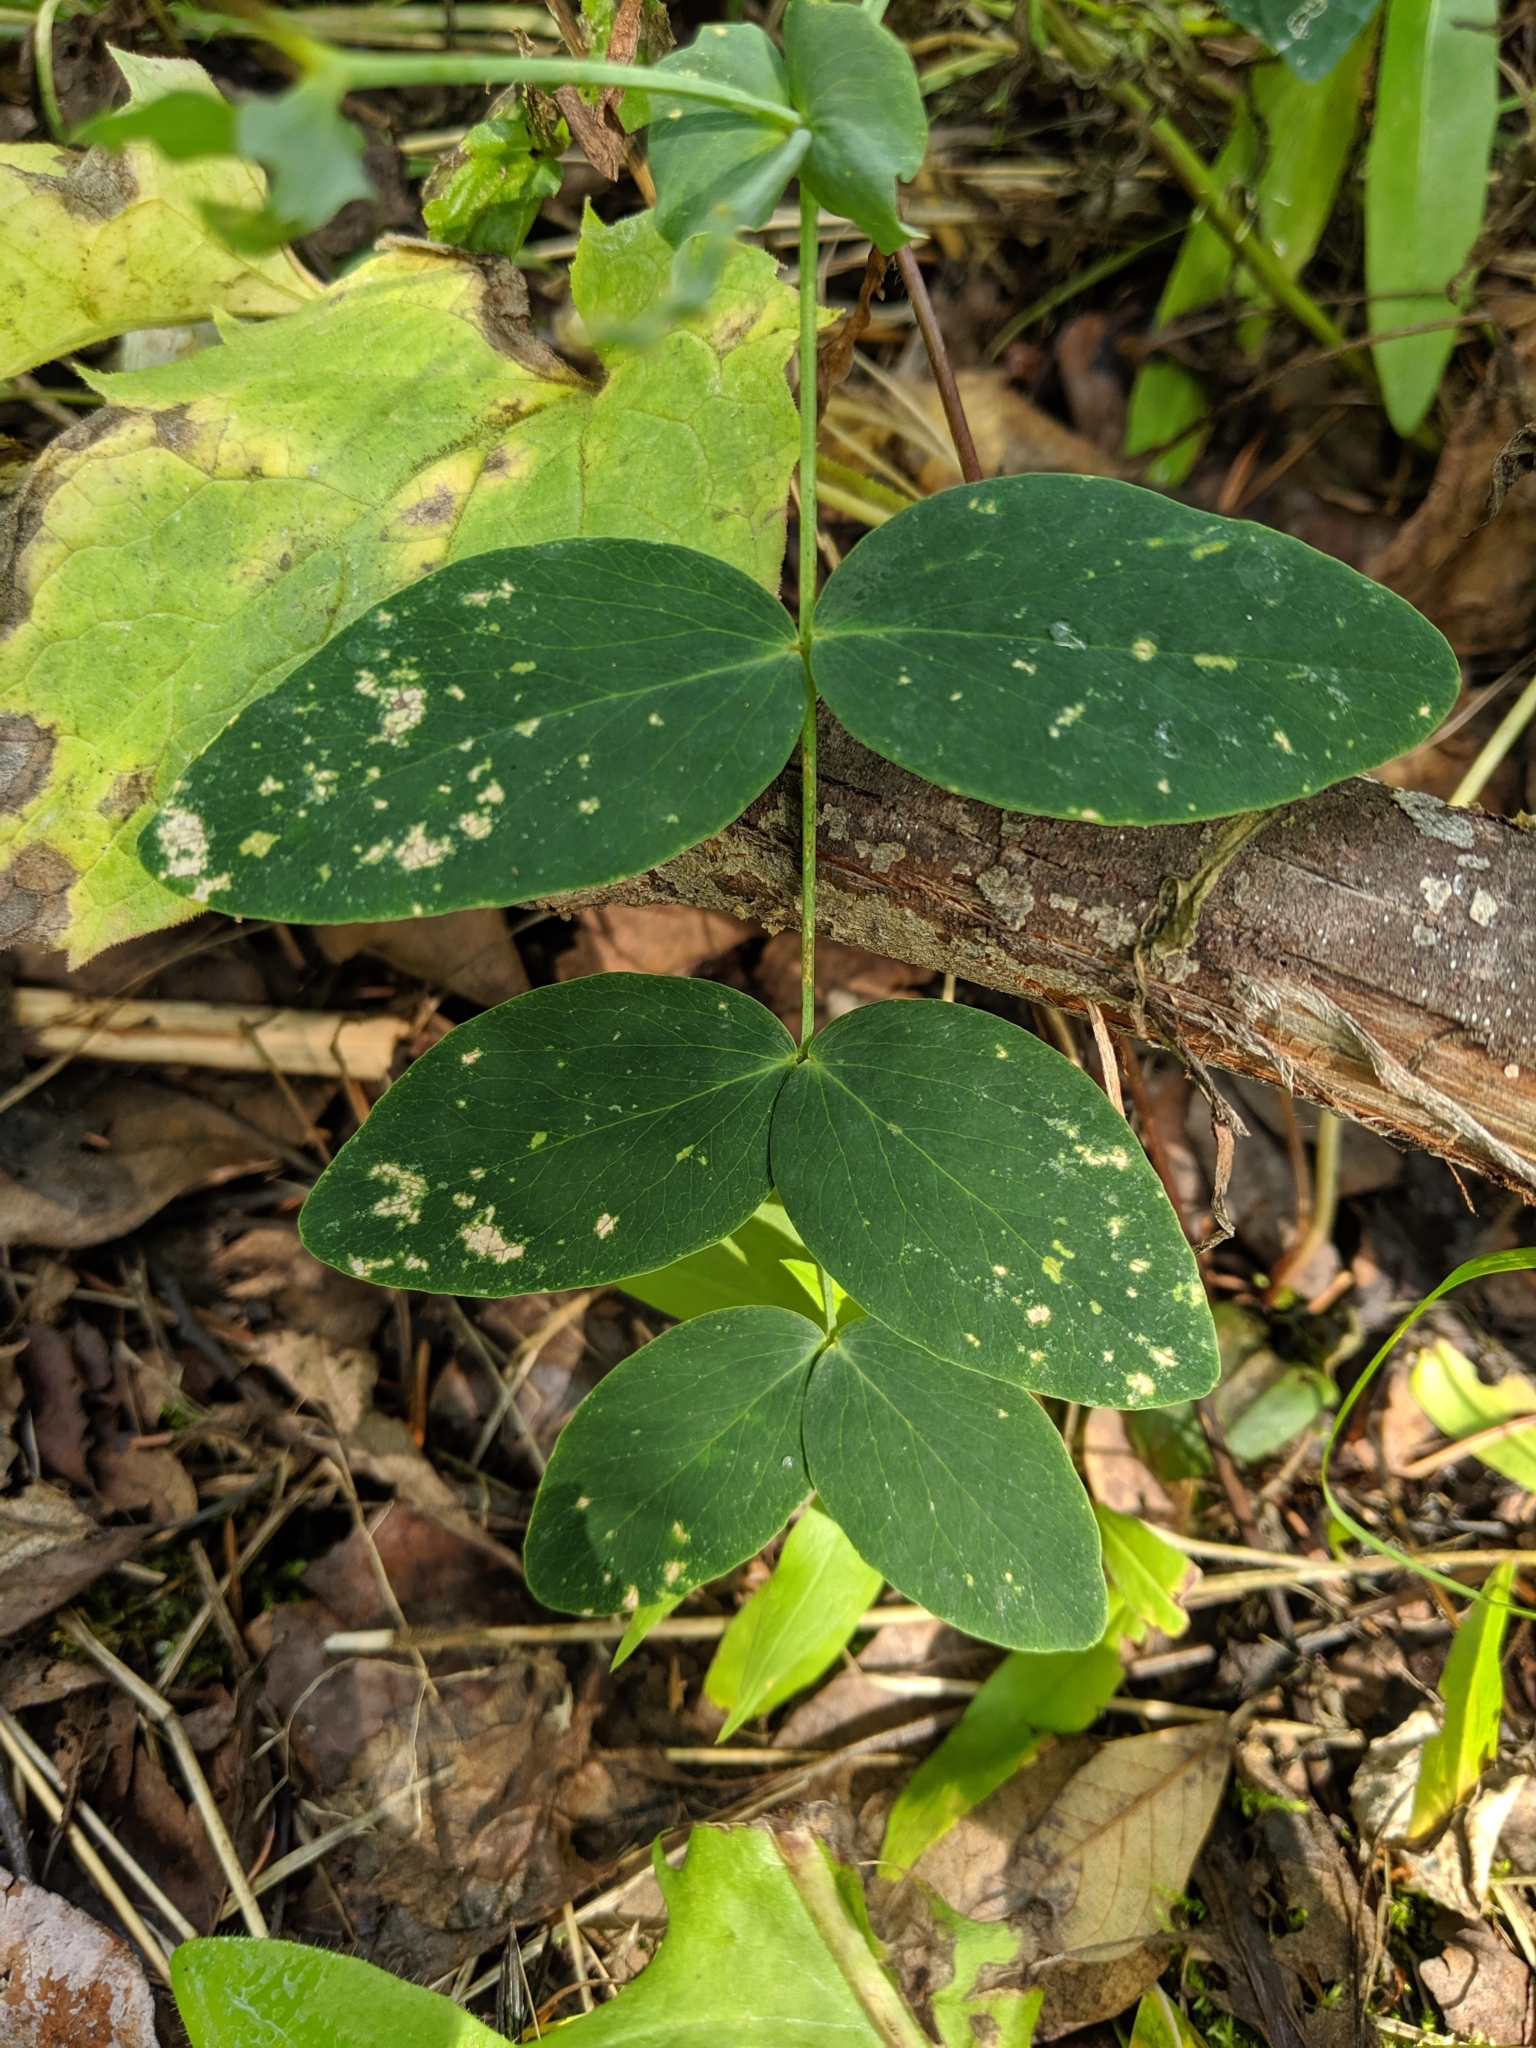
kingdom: Plantae
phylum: Tracheophyta
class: Magnoliopsida
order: Fabales
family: Fabaceae
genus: Lathyrus
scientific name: Lathyrus ochroleucus
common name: Pale vetchling
